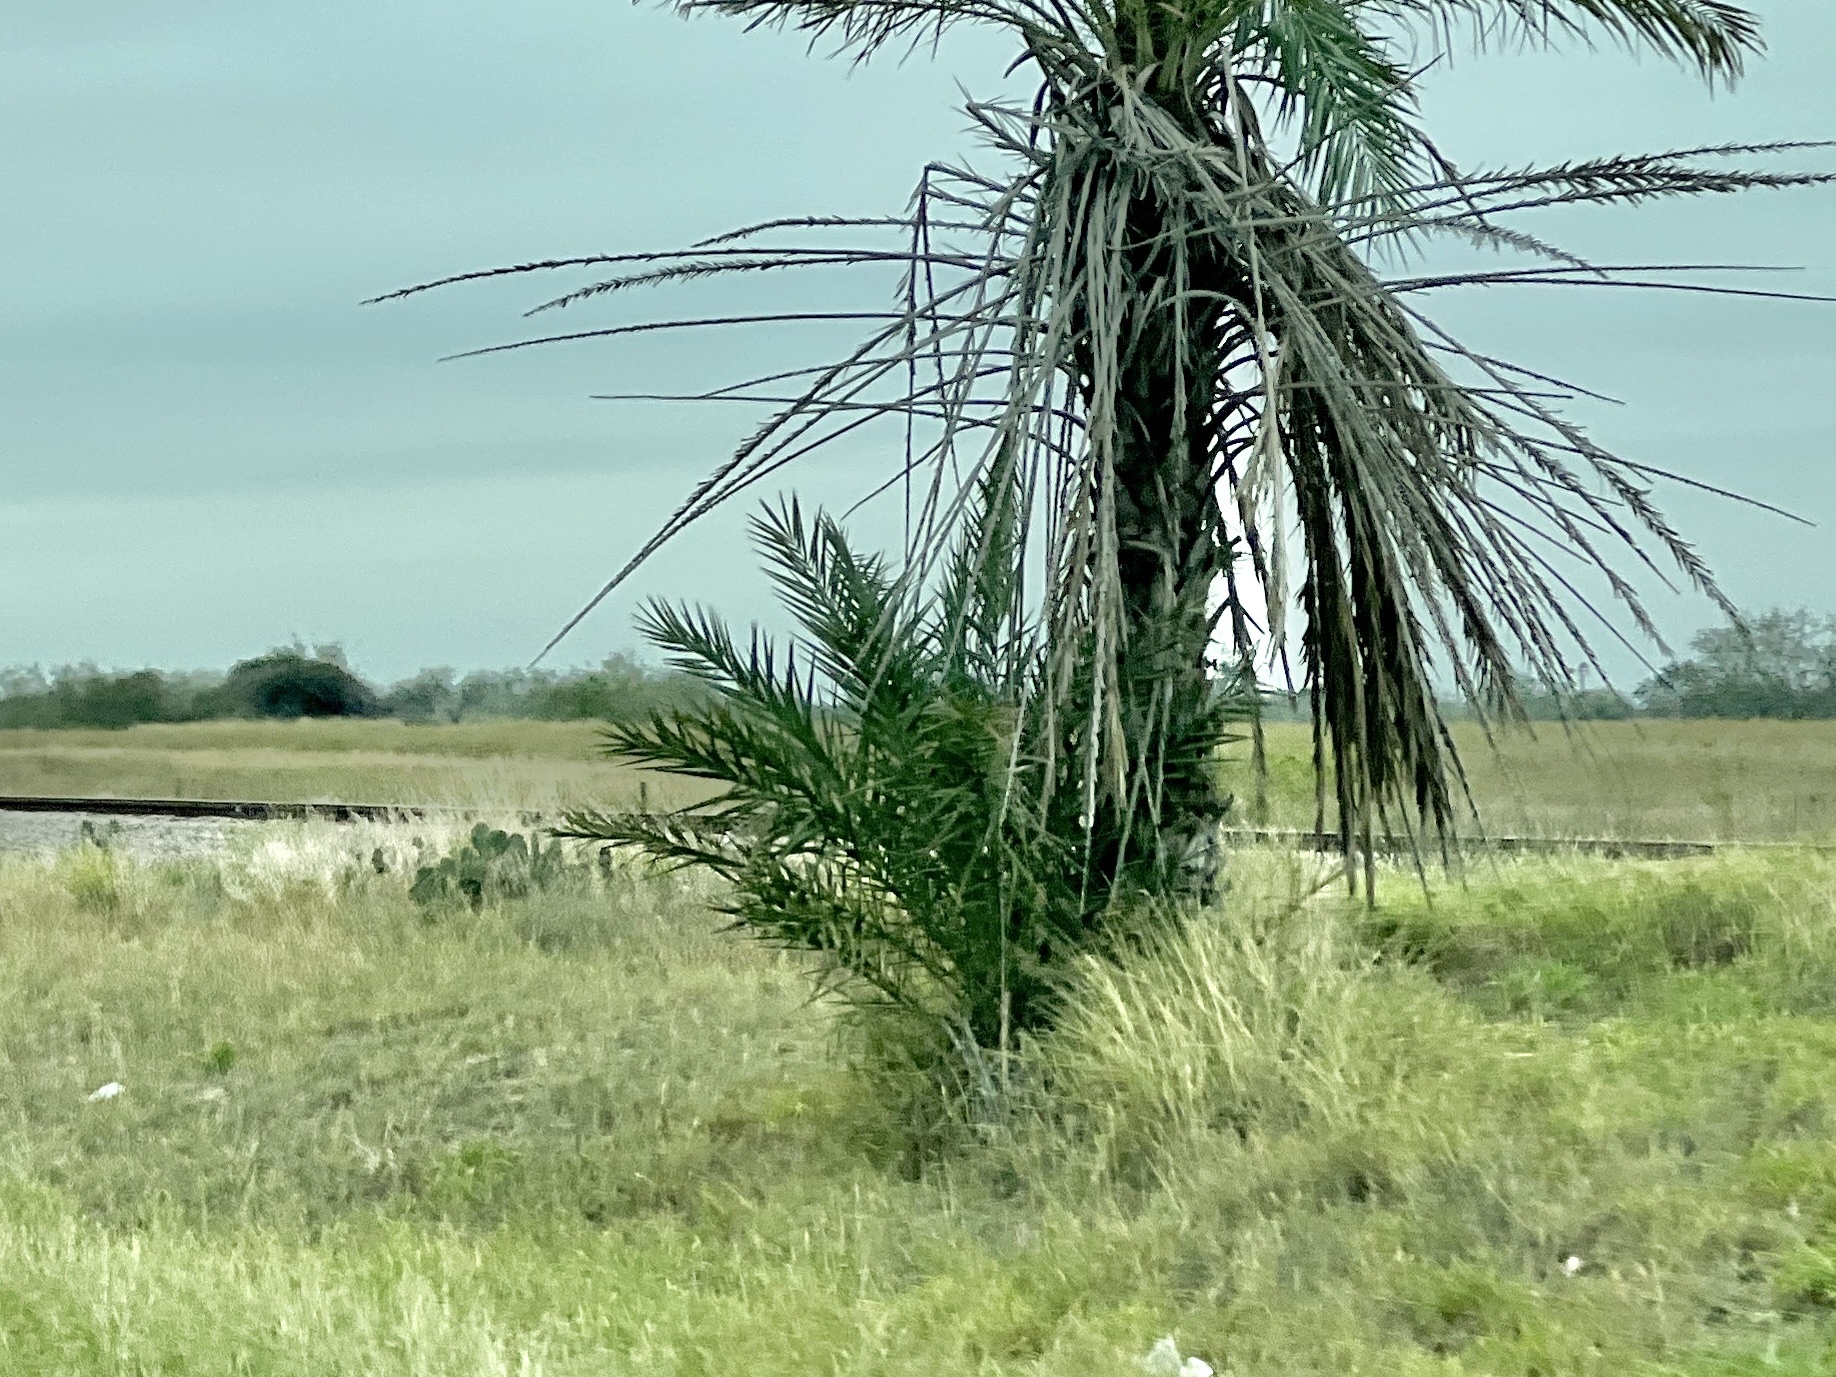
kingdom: Plantae
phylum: Tracheophyta
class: Liliopsida
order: Arecales
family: Arecaceae
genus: Phoenix
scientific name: Phoenix dactylifera
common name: Date palm
